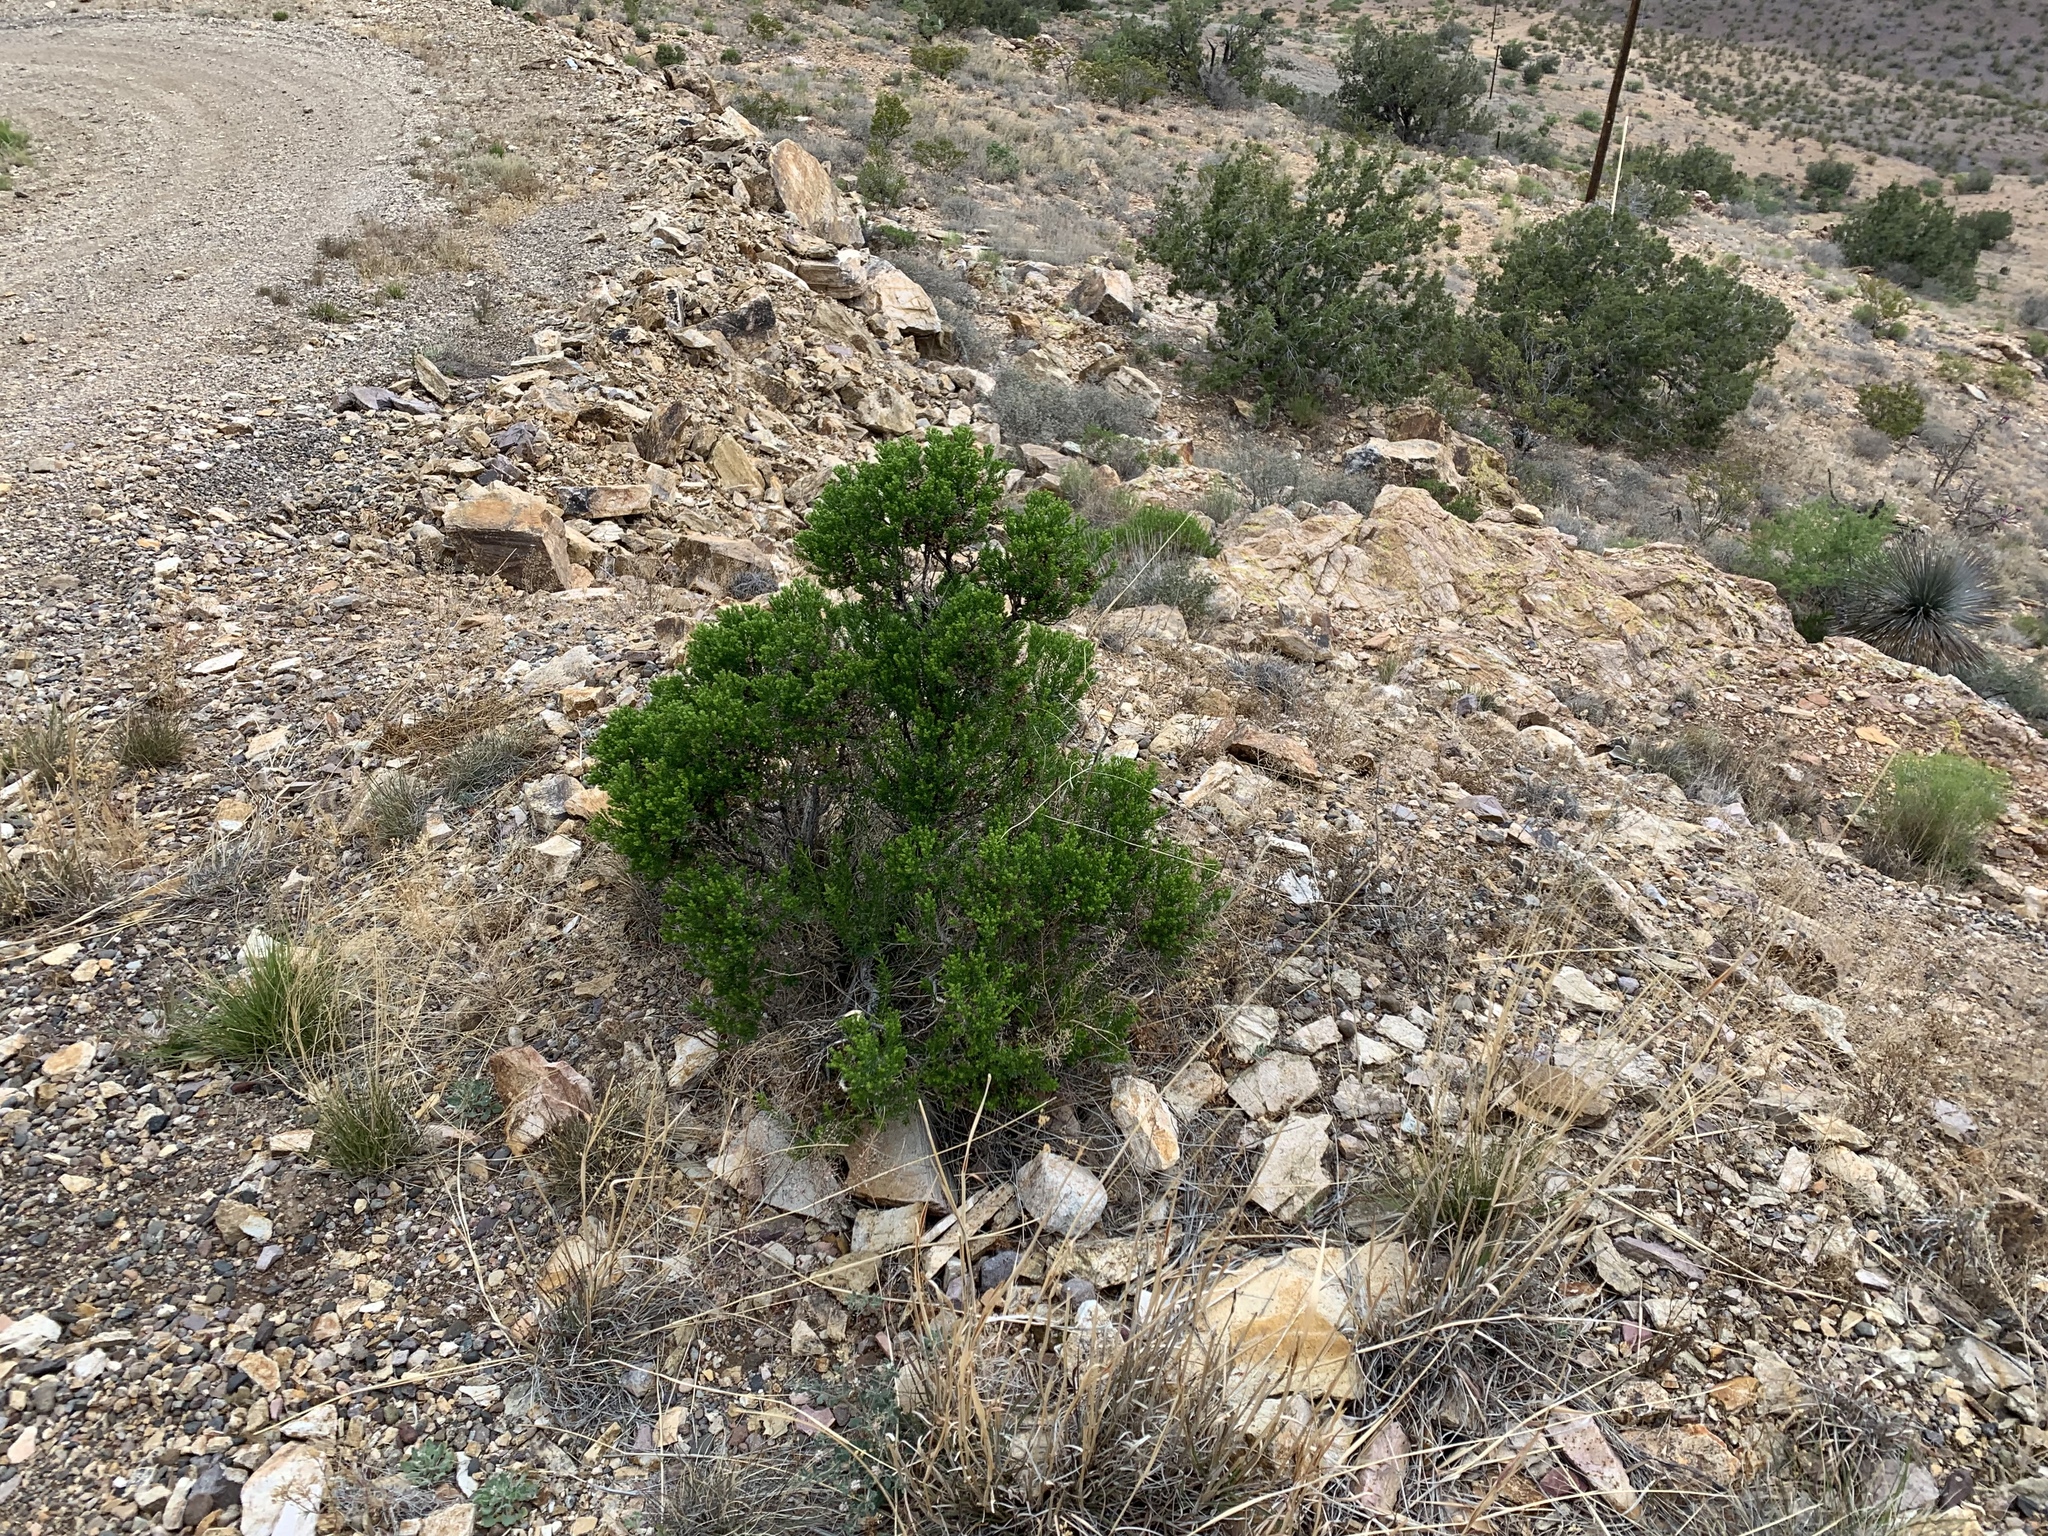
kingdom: Plantae
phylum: Tracheophyta
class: Magnoliopsida
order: Asterales
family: Asteraceae
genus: Peucephyllum
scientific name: Peucephyllum schottii
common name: Pygmy-cedar
